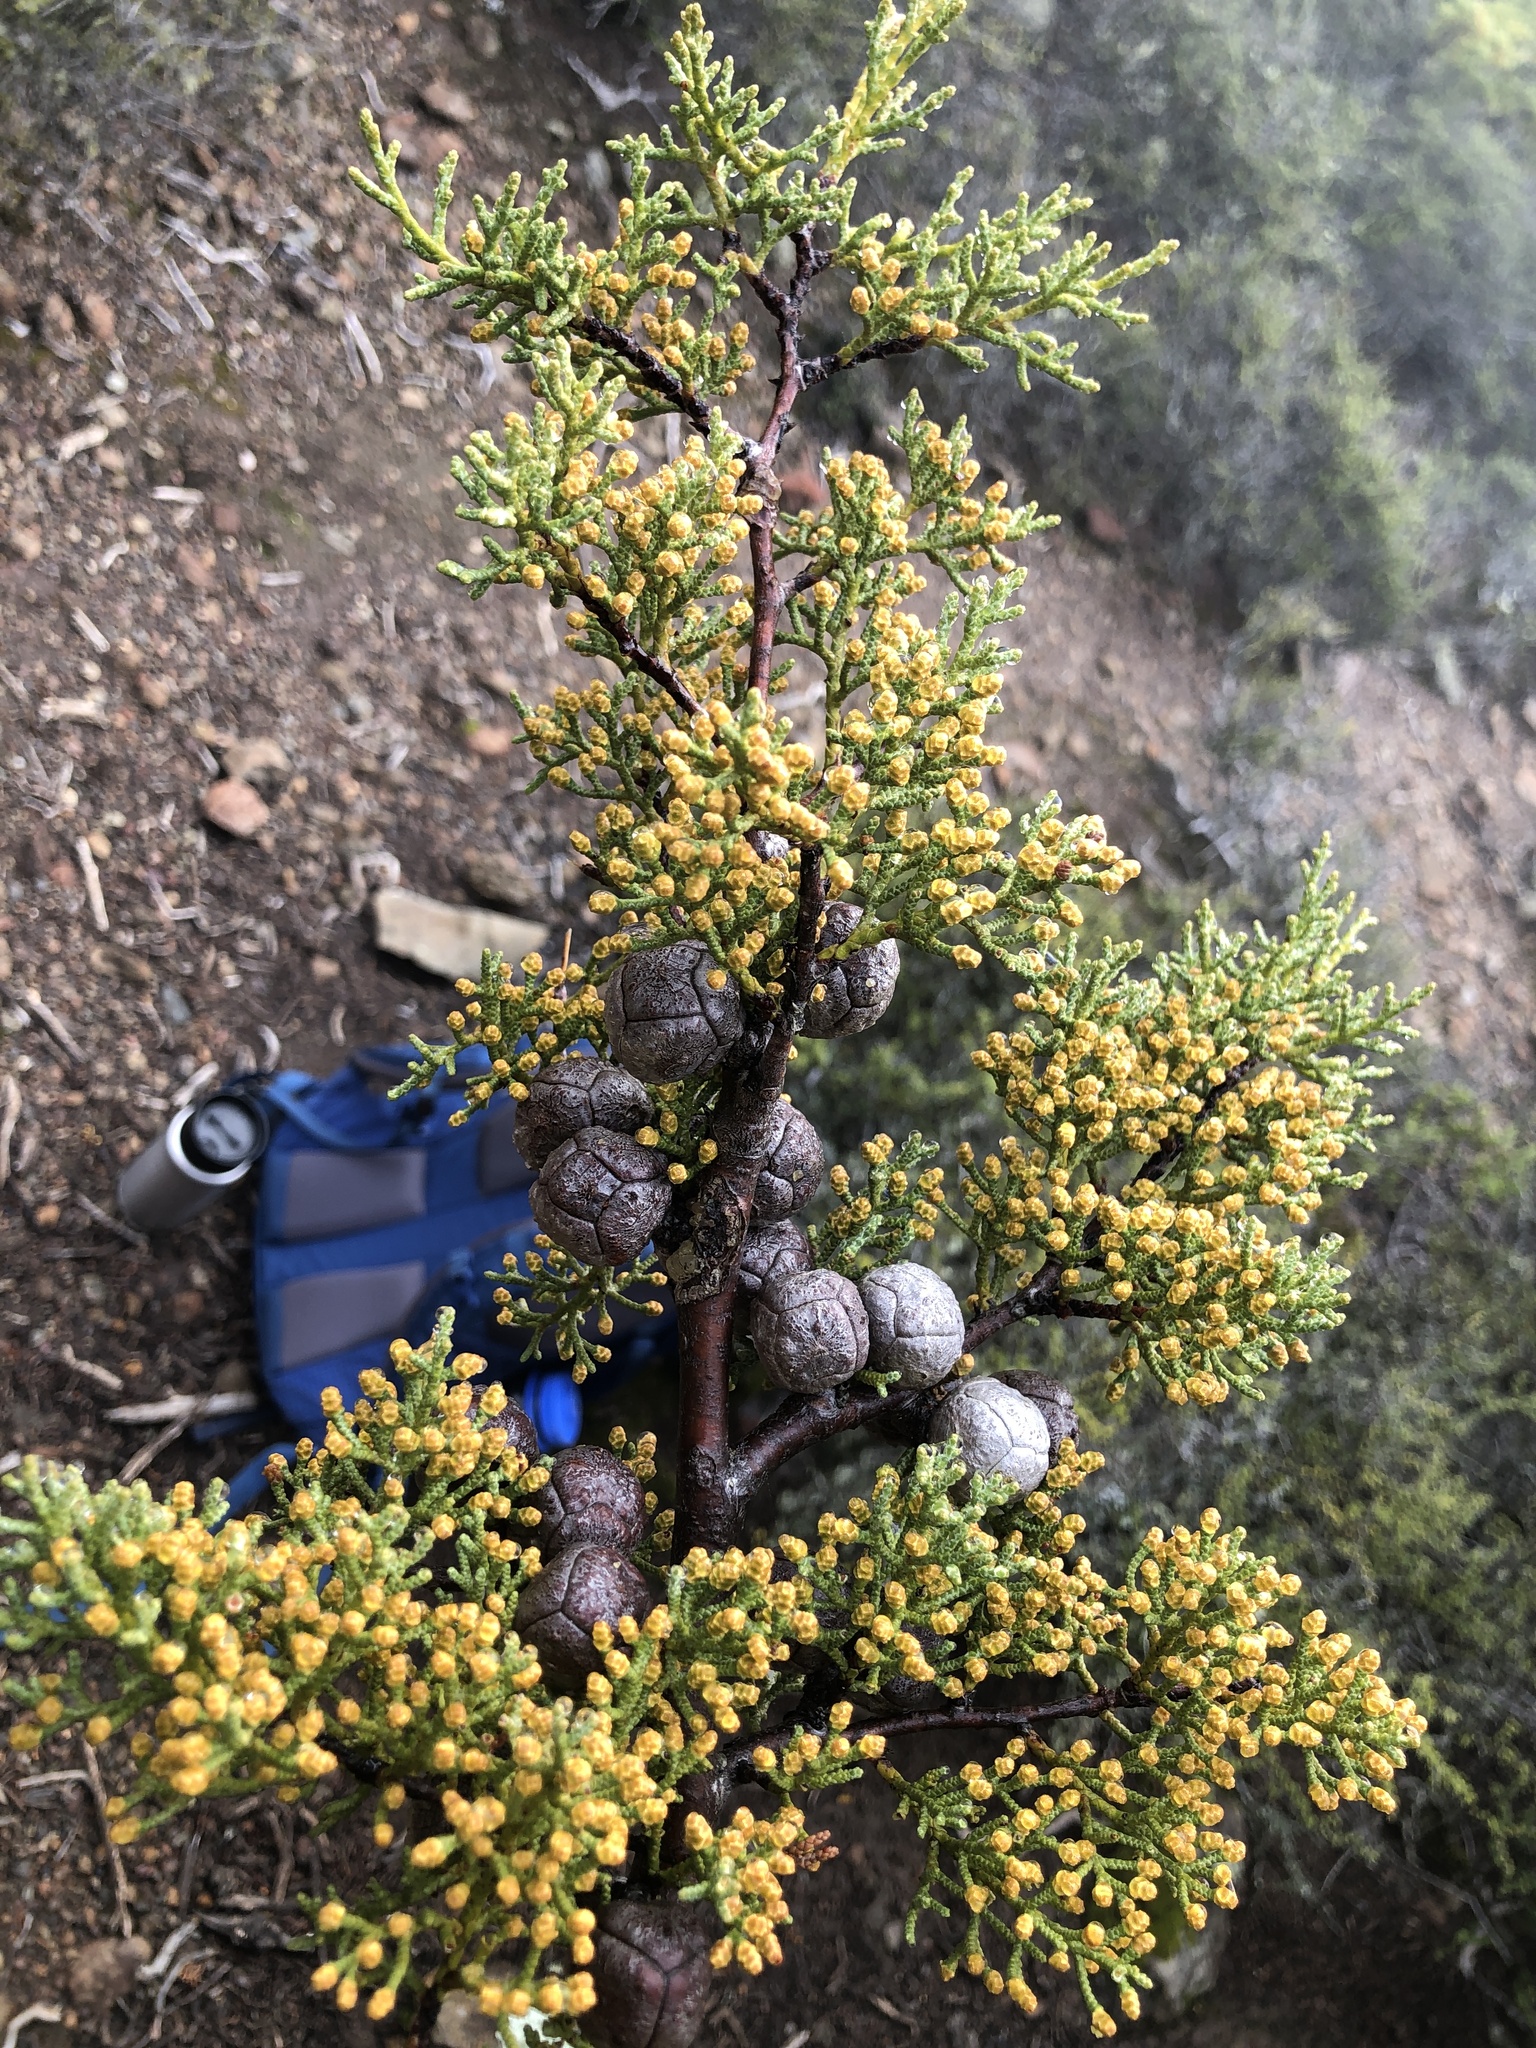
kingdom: Plantae
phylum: Tracheophyta
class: Pinopsida
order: Pinales
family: Cupressaceae
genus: Cupressus
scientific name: Cupressus sargentii
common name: Sargent cypress
